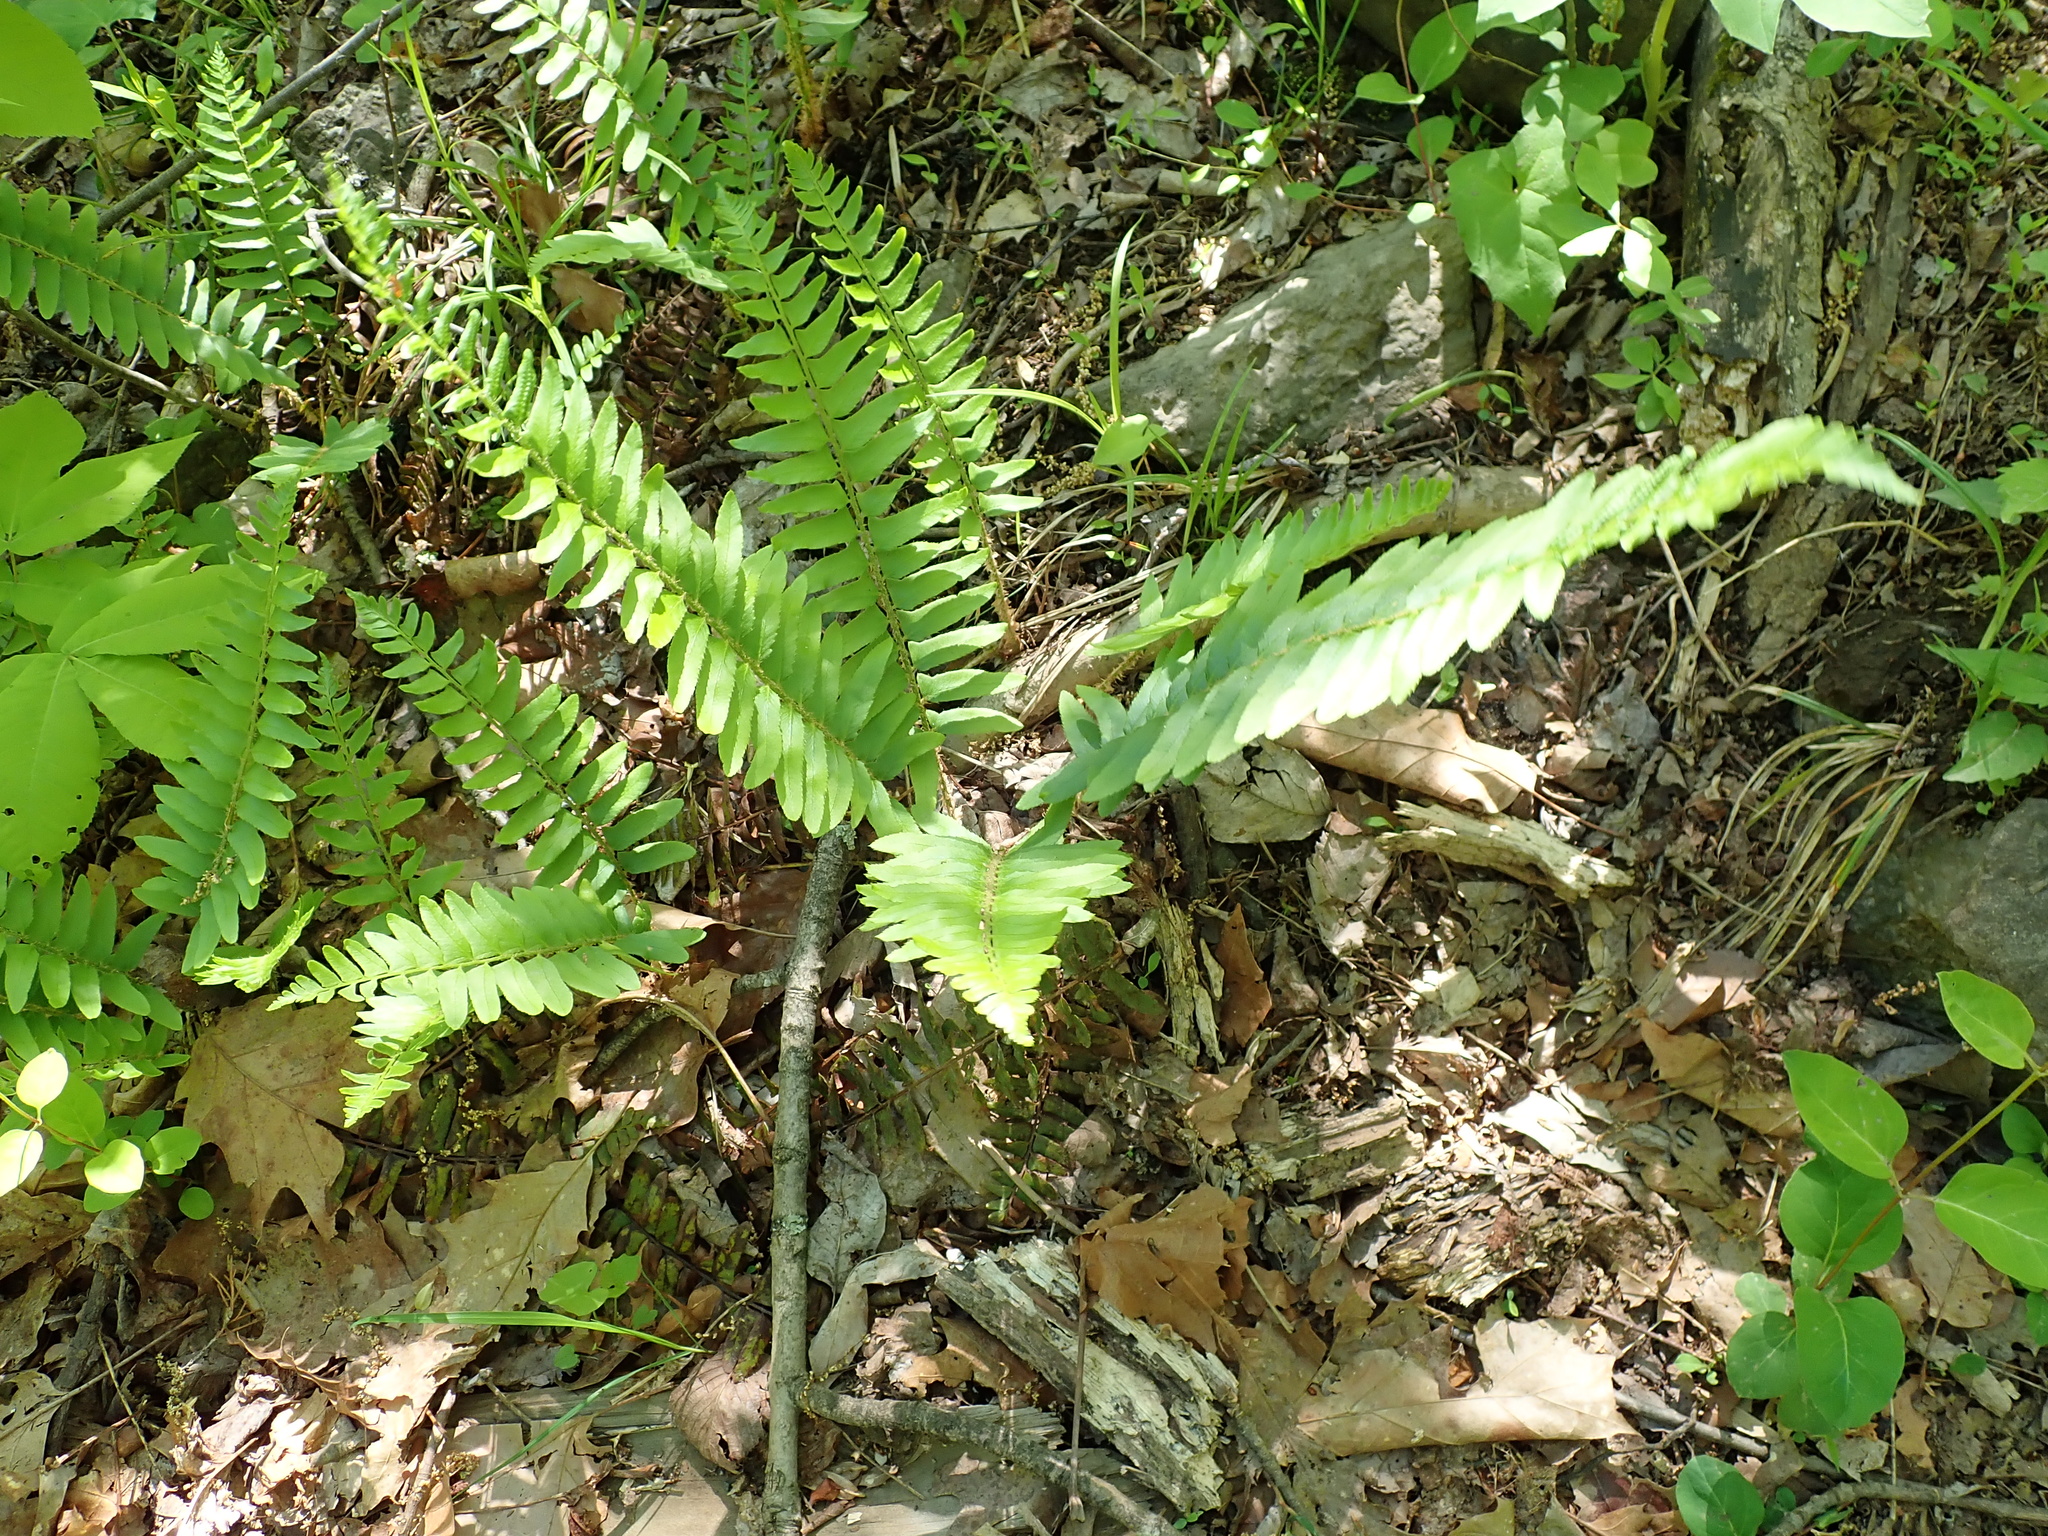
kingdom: Plantae
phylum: Tracheophyta
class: Polypodiopsida
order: Polypodiales
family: Dryopteridaceae
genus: Polystichum
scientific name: Polystichum acrostichoides
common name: Christmas fern
